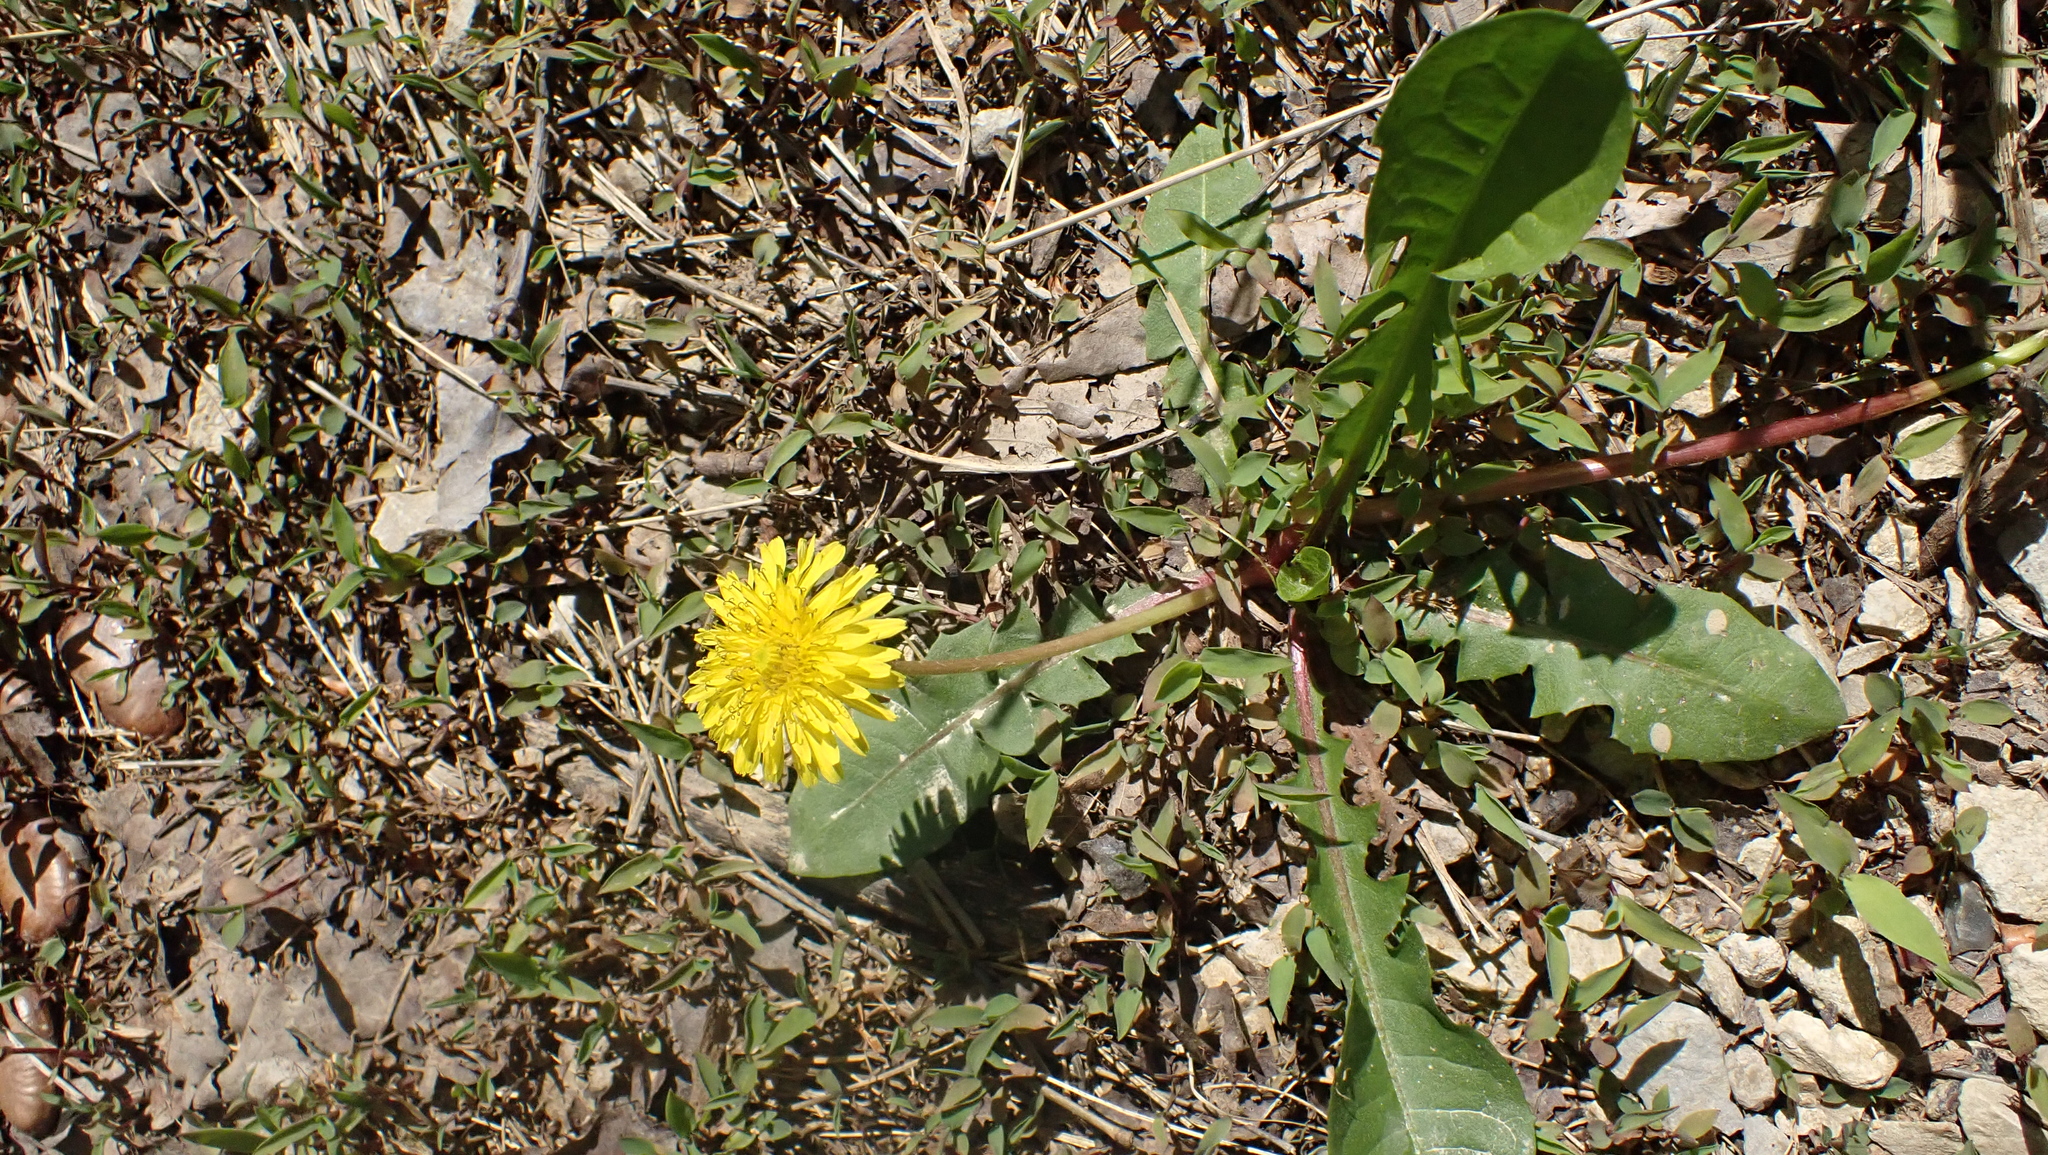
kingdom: Plantae
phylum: Tracheophyta
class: Magnoliopsida
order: Asterales
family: Asteraceae
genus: Taraxacum
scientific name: Taraxacum officinale
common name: Common dandelion
